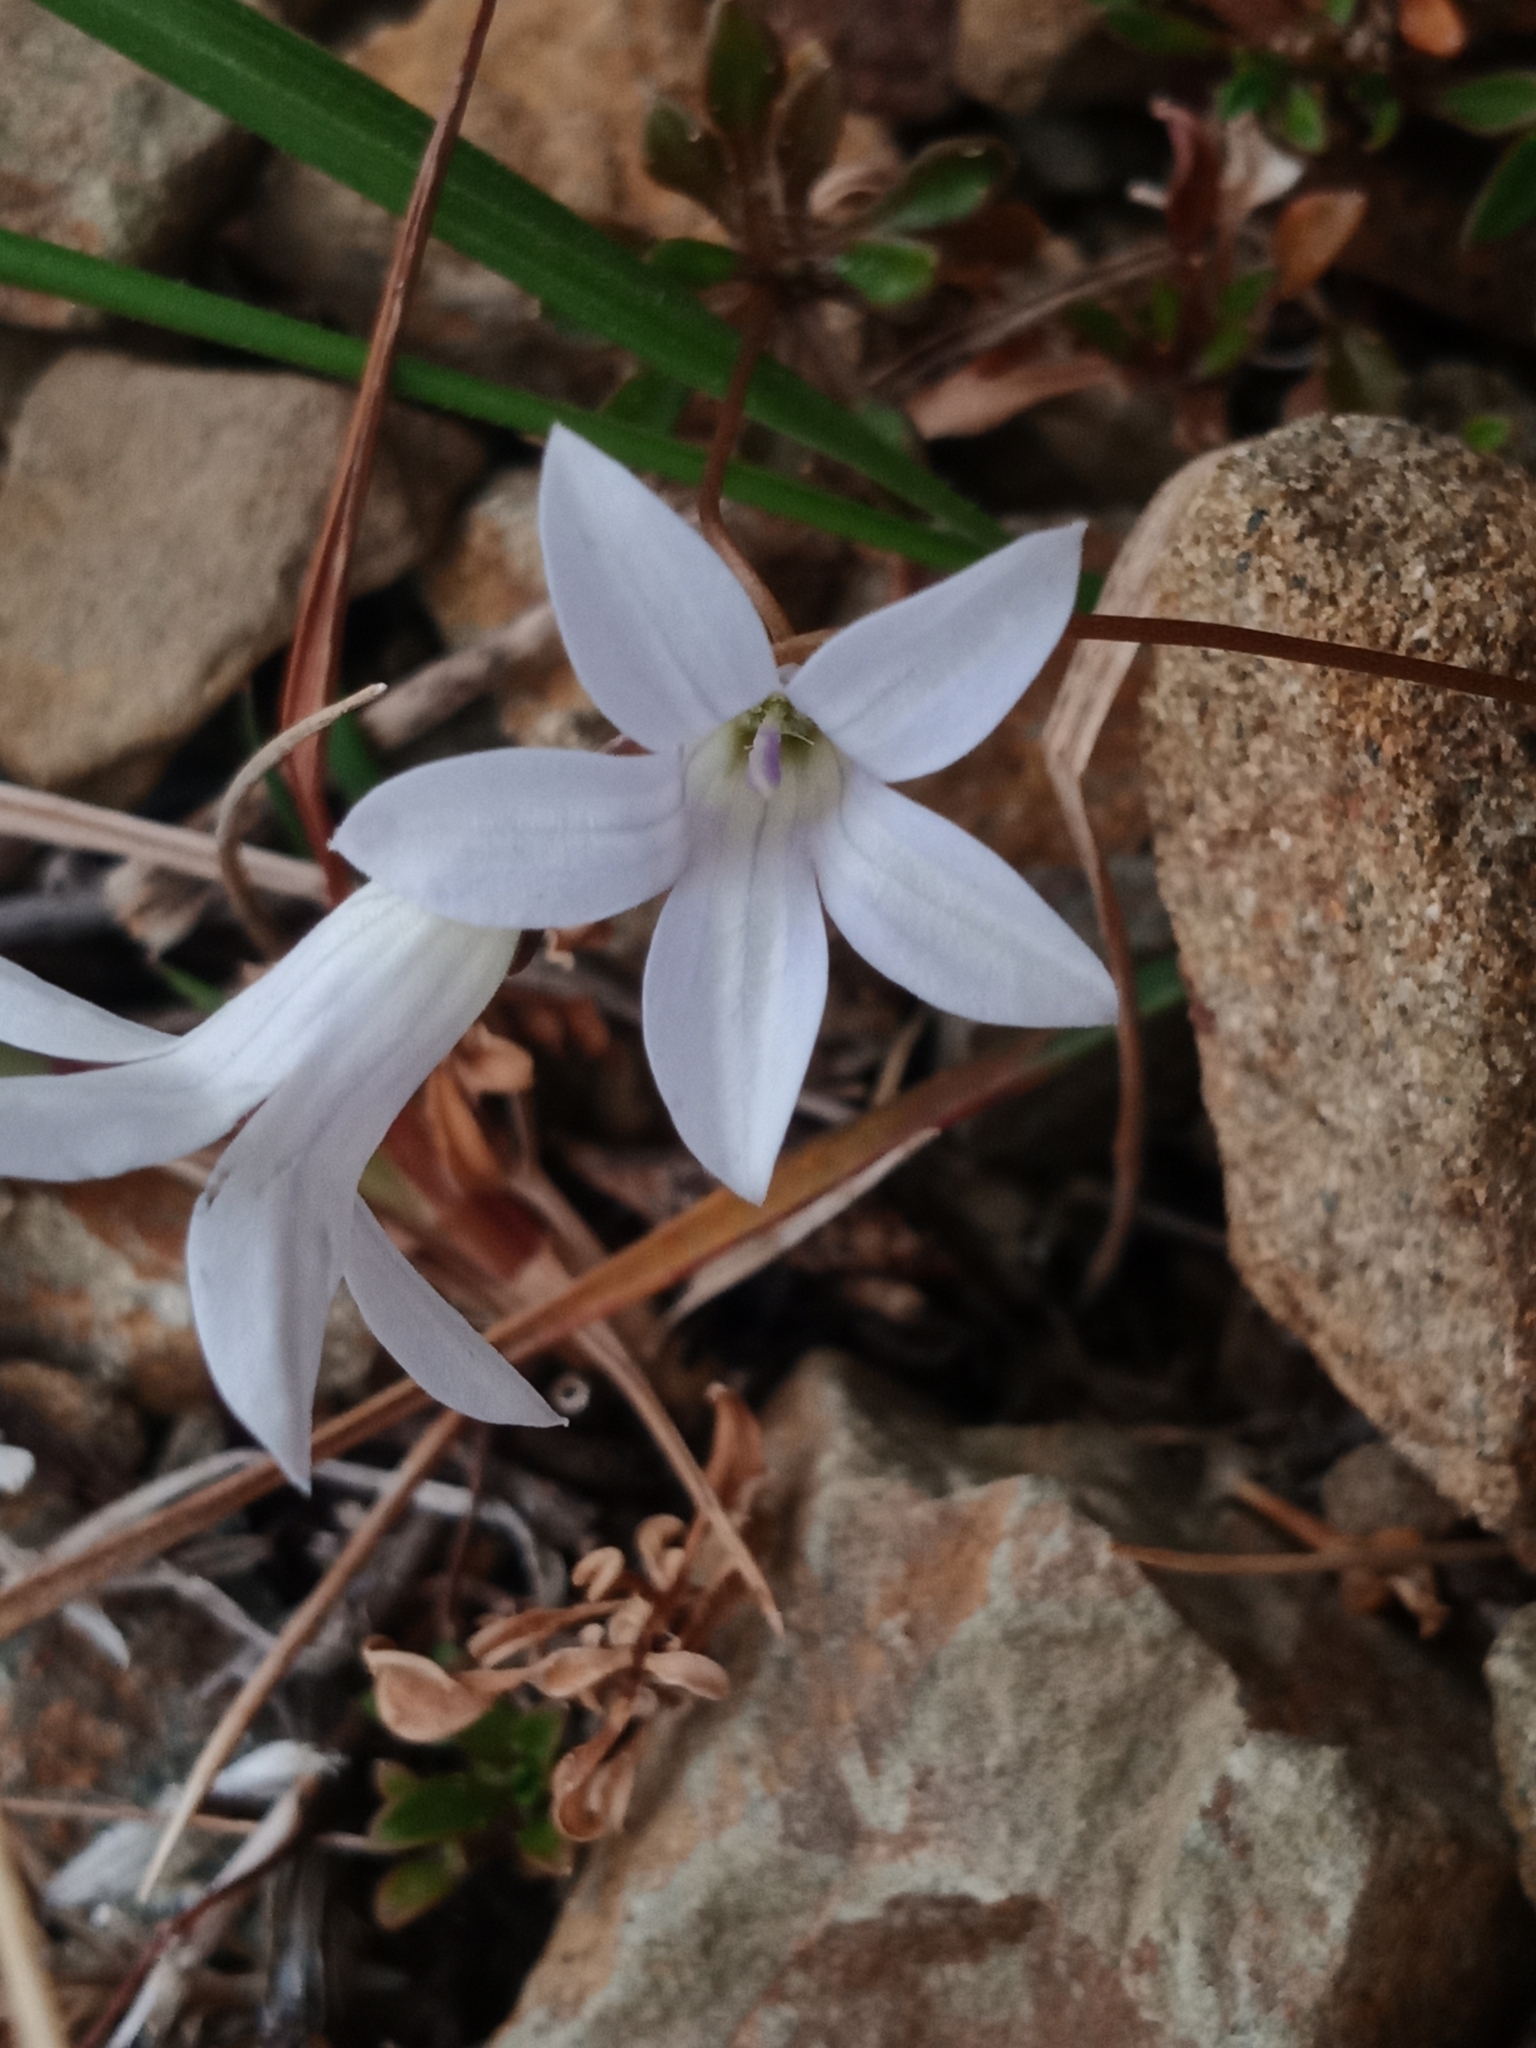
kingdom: Plantae
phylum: Tracheophyta
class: Magnoliopsida
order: Asterales
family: Campanulaceae
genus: Wahlenbergia
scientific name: Wahlenbergia albomarginata
